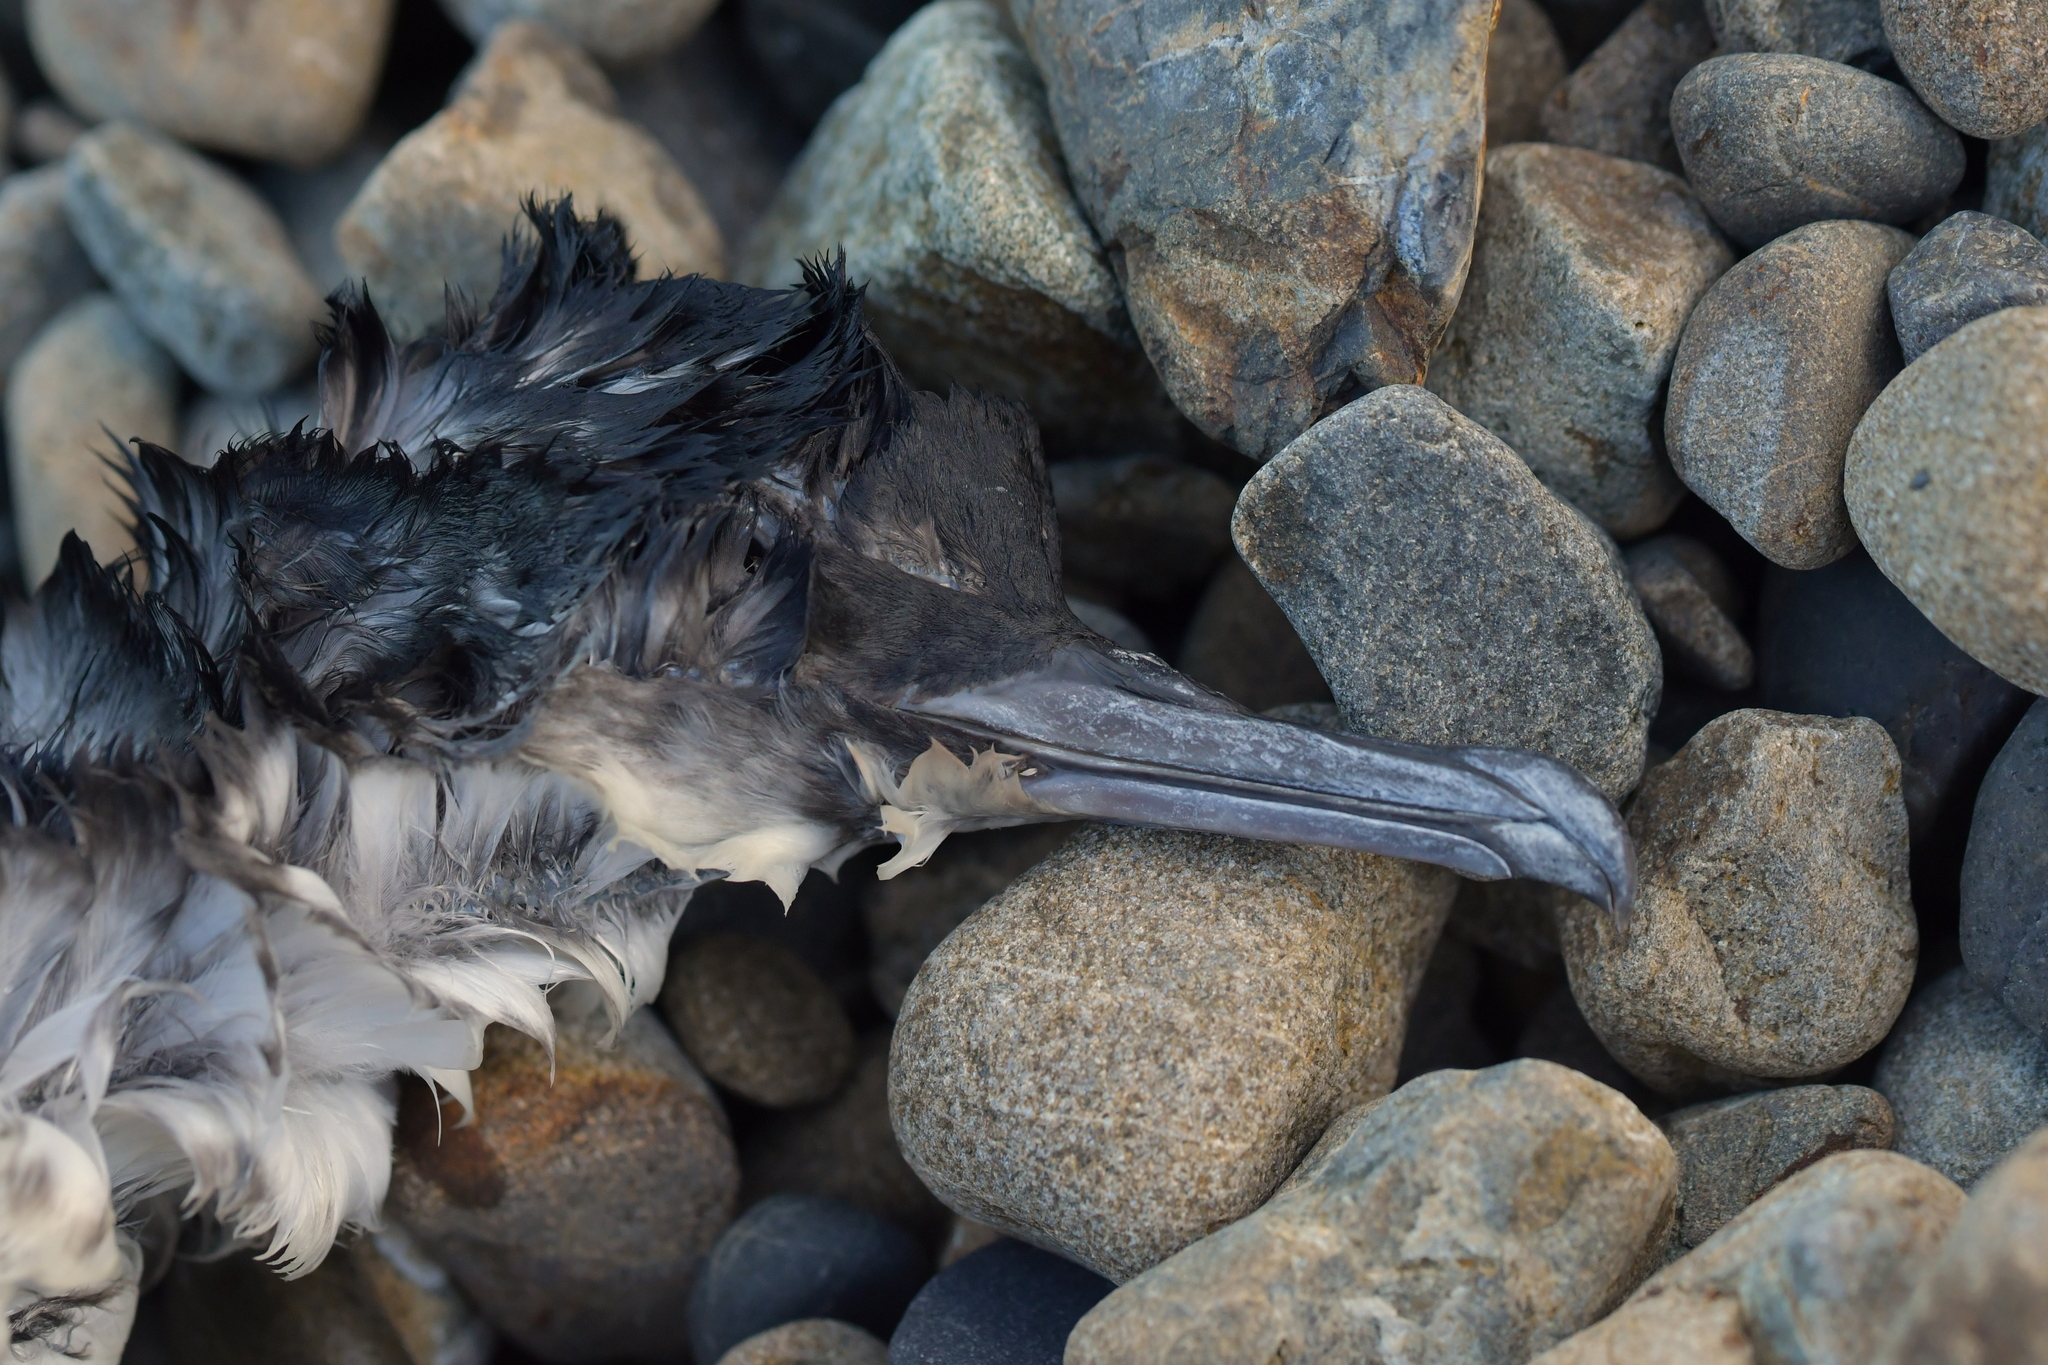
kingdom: Animalia
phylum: Chordata
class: Aves
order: Procellariiformes
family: Procellariidae
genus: Puffinus
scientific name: Puffinus gavia
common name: Fluttering shearwater
